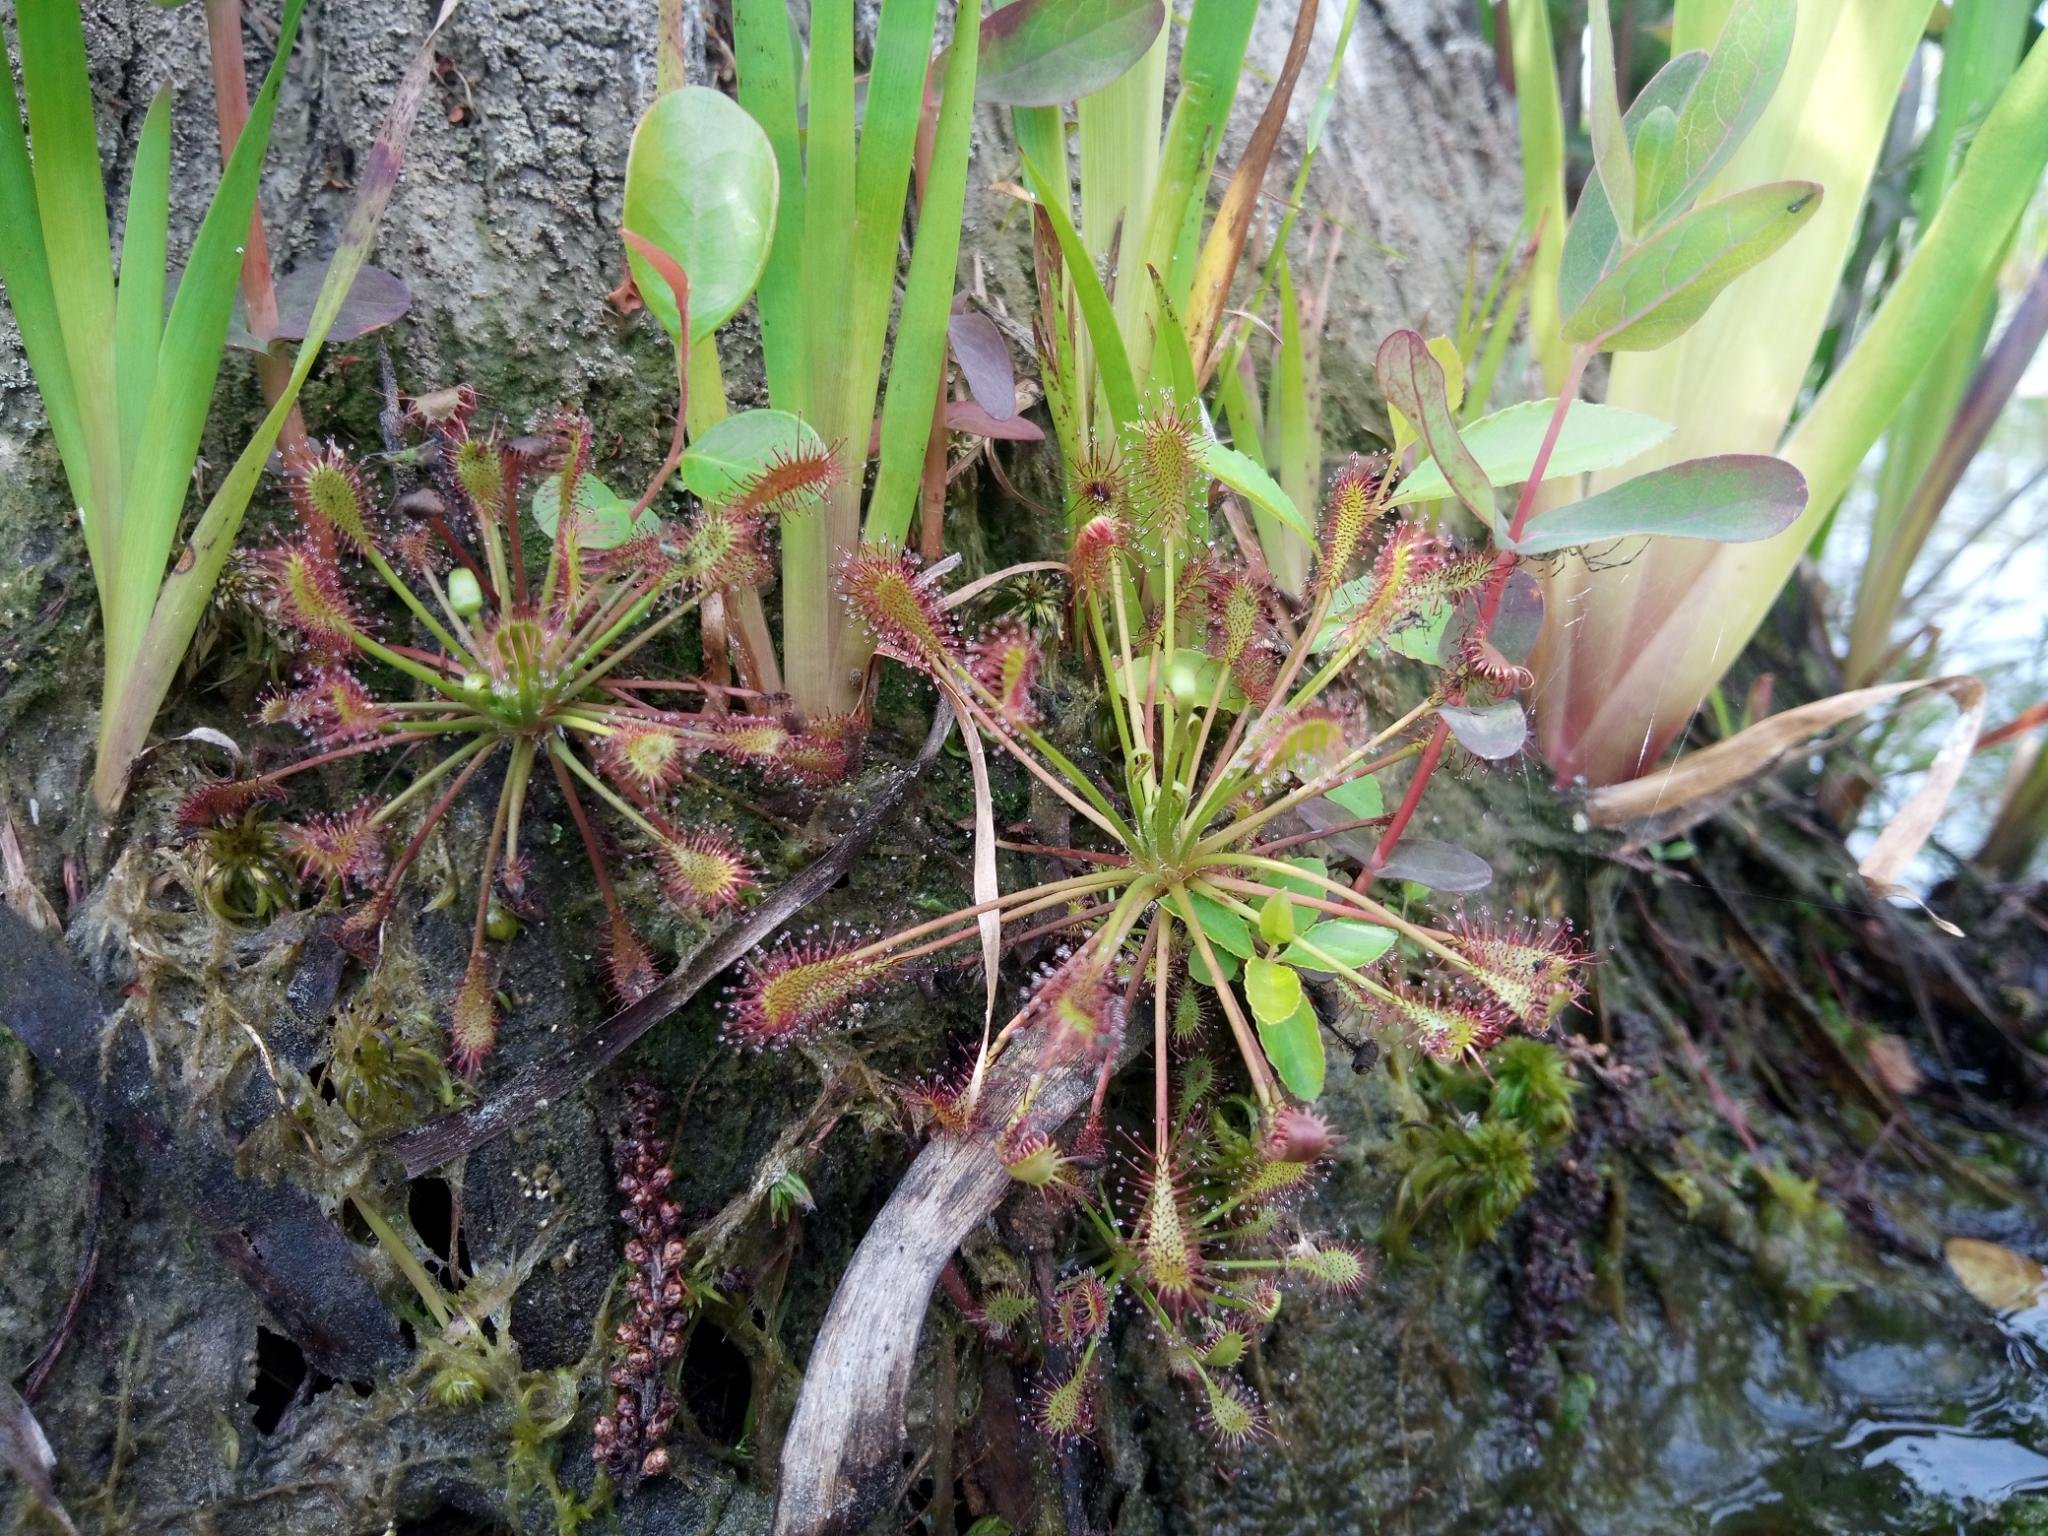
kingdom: Plantae
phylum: Tracheophyta
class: Magnoliopsida
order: Caryophyllales
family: Droseraceae
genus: Drosera
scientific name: Drosera intermedia
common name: Oblong-leaved sundew
